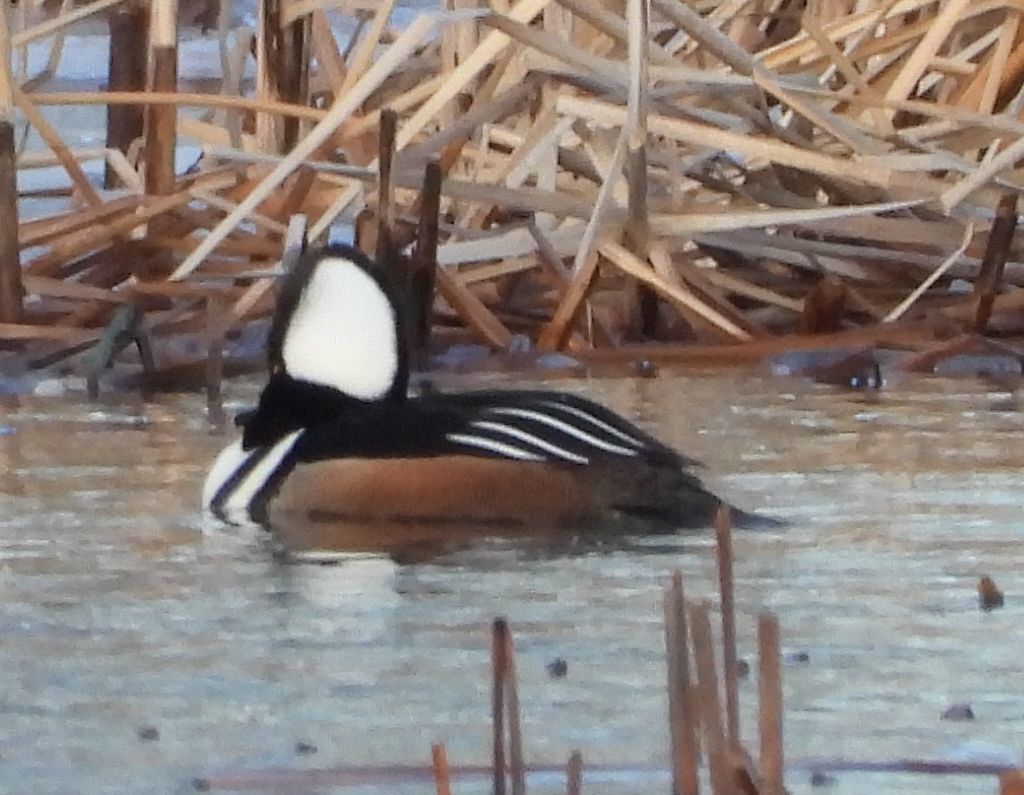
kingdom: Animalia
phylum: Chordata
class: Aves
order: Anseriformes
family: Anatidae
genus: Lophodytes
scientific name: Lophodytes cucullatus
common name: Hooded merganser
